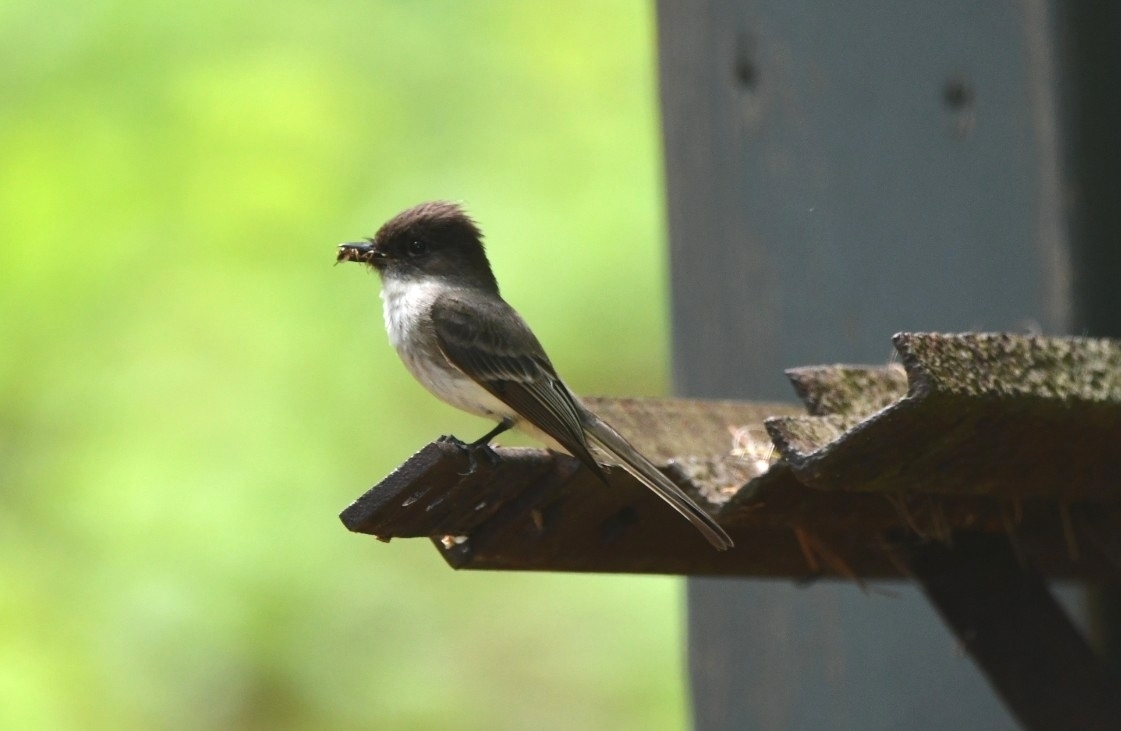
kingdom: Animalia
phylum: Chordata
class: Aves
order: Passeriformes
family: Tyrannidae
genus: Sayornis
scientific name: Sayornis phoebe
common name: Eastern phoebe
